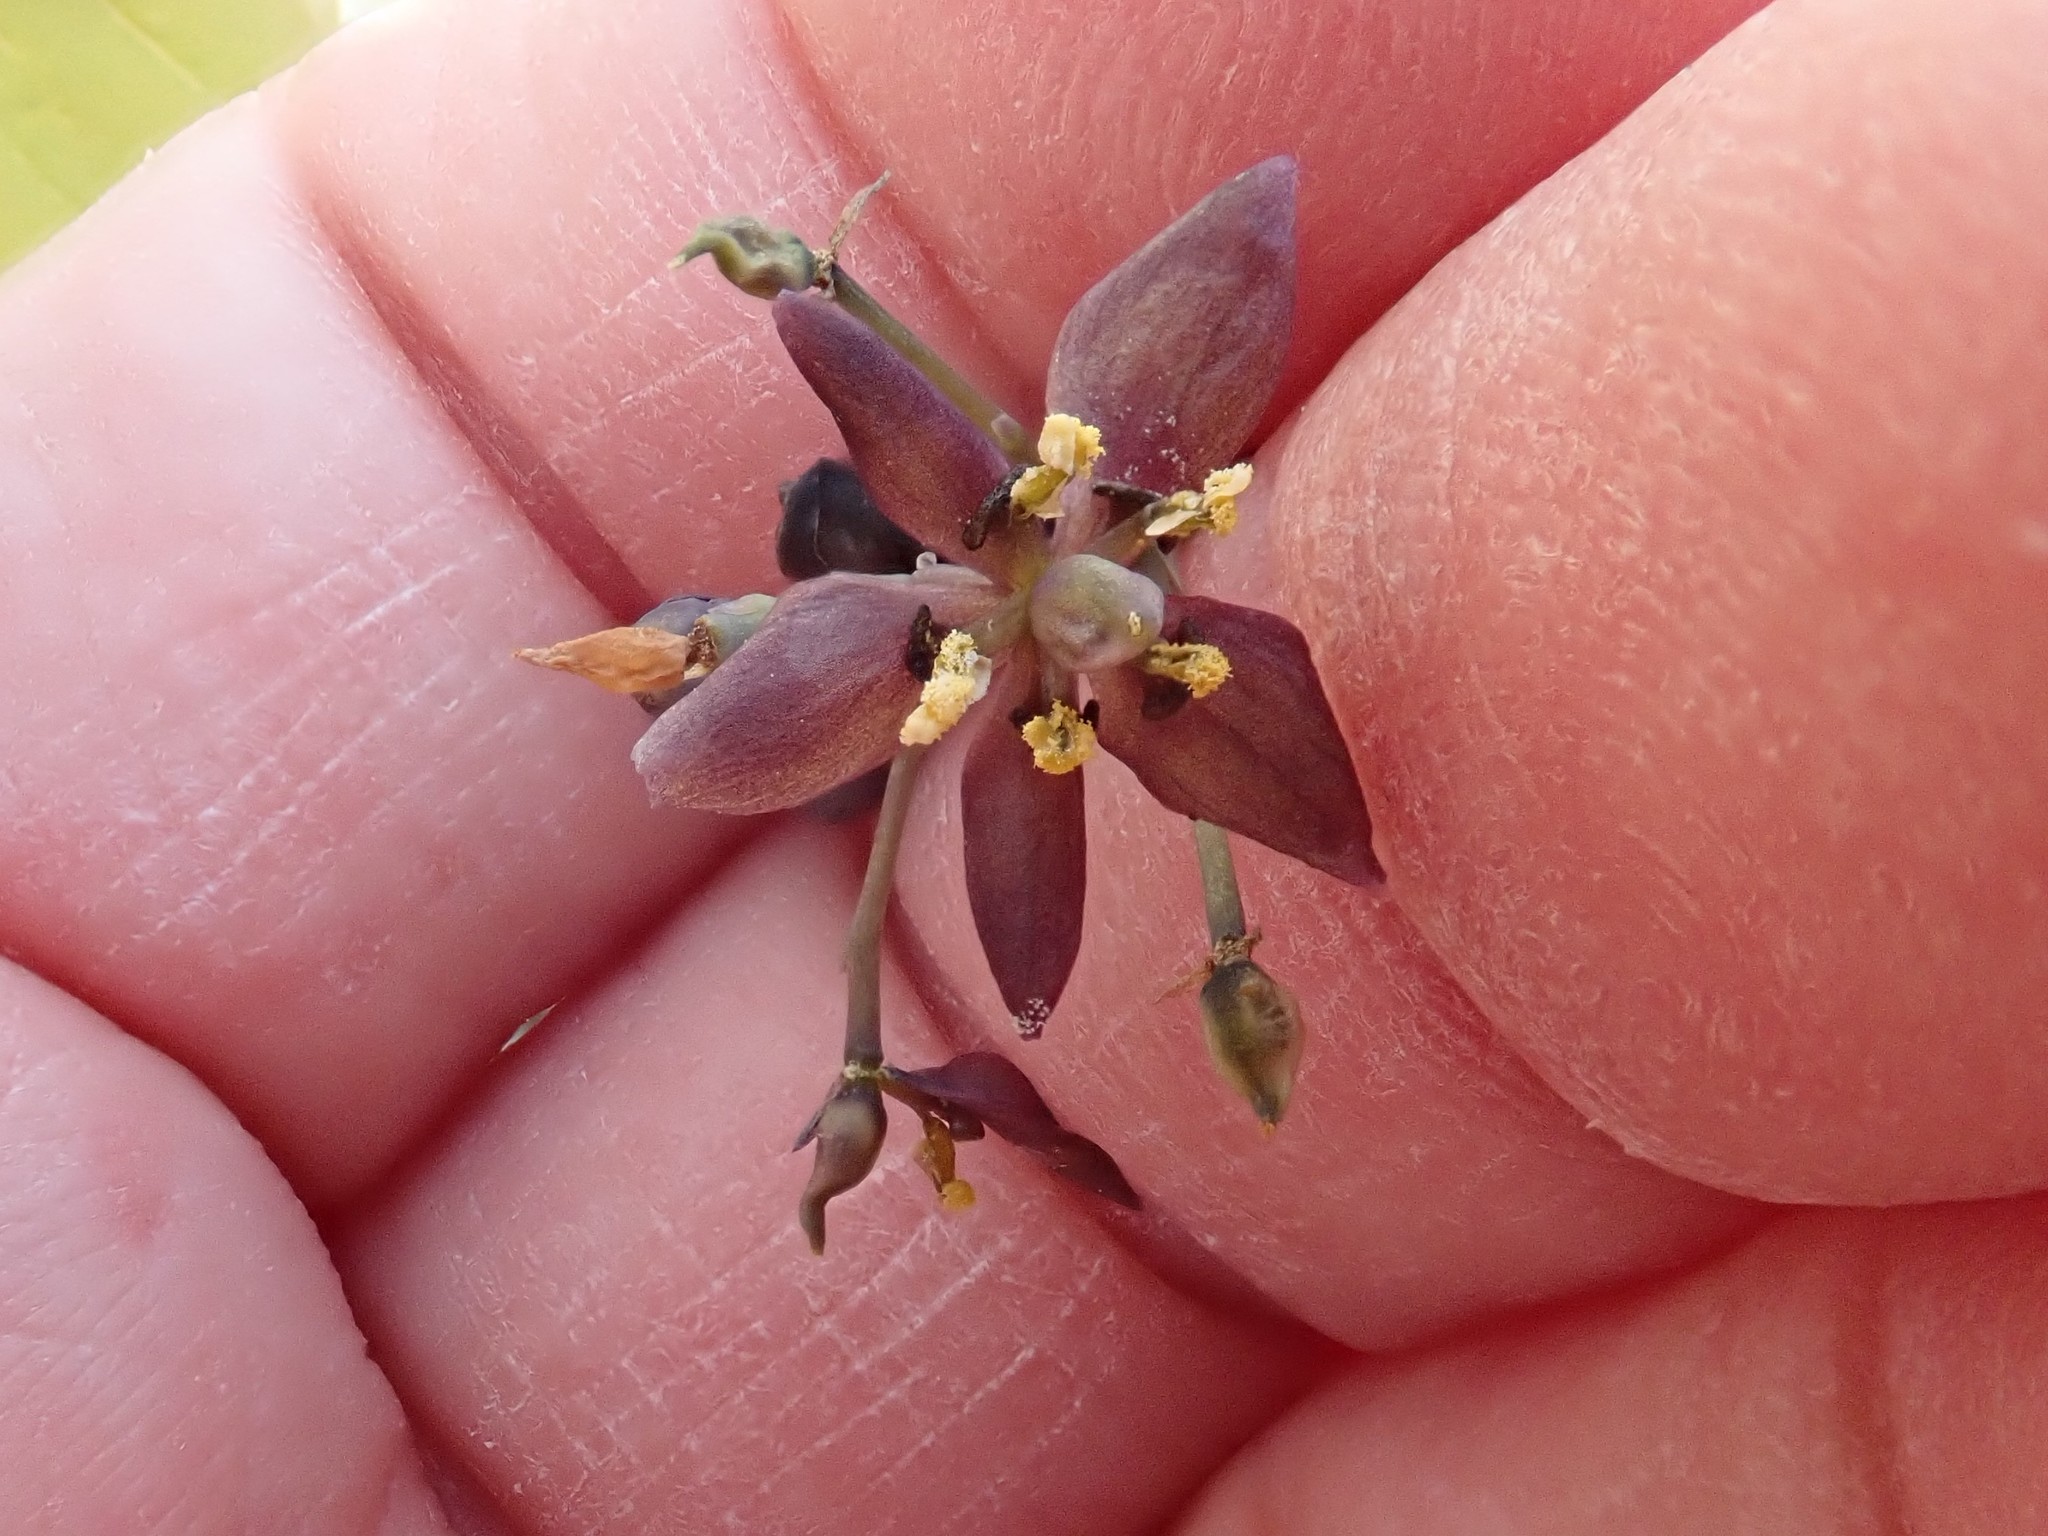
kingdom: Plantae
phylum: Tracheophyta
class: Magnoliopsida
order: Ranunculales
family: Berberidaceae
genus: Caulophyllum
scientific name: Caulophyllum giganteum
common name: Blue cohosh
